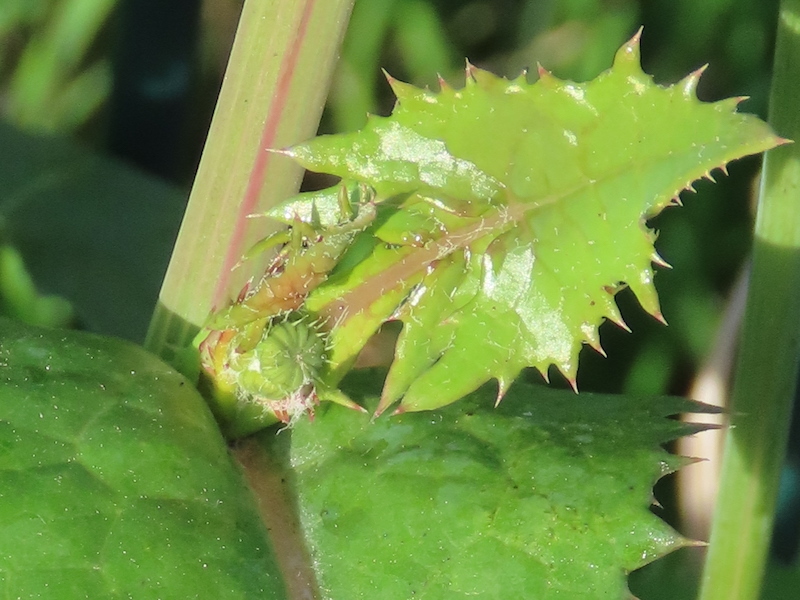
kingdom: Plantae
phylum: Tracheophyta
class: Magnoliopsida
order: Asterales
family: Asteraceae
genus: Sonchus
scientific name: Sonchus oleraceus
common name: Common sowthistle
